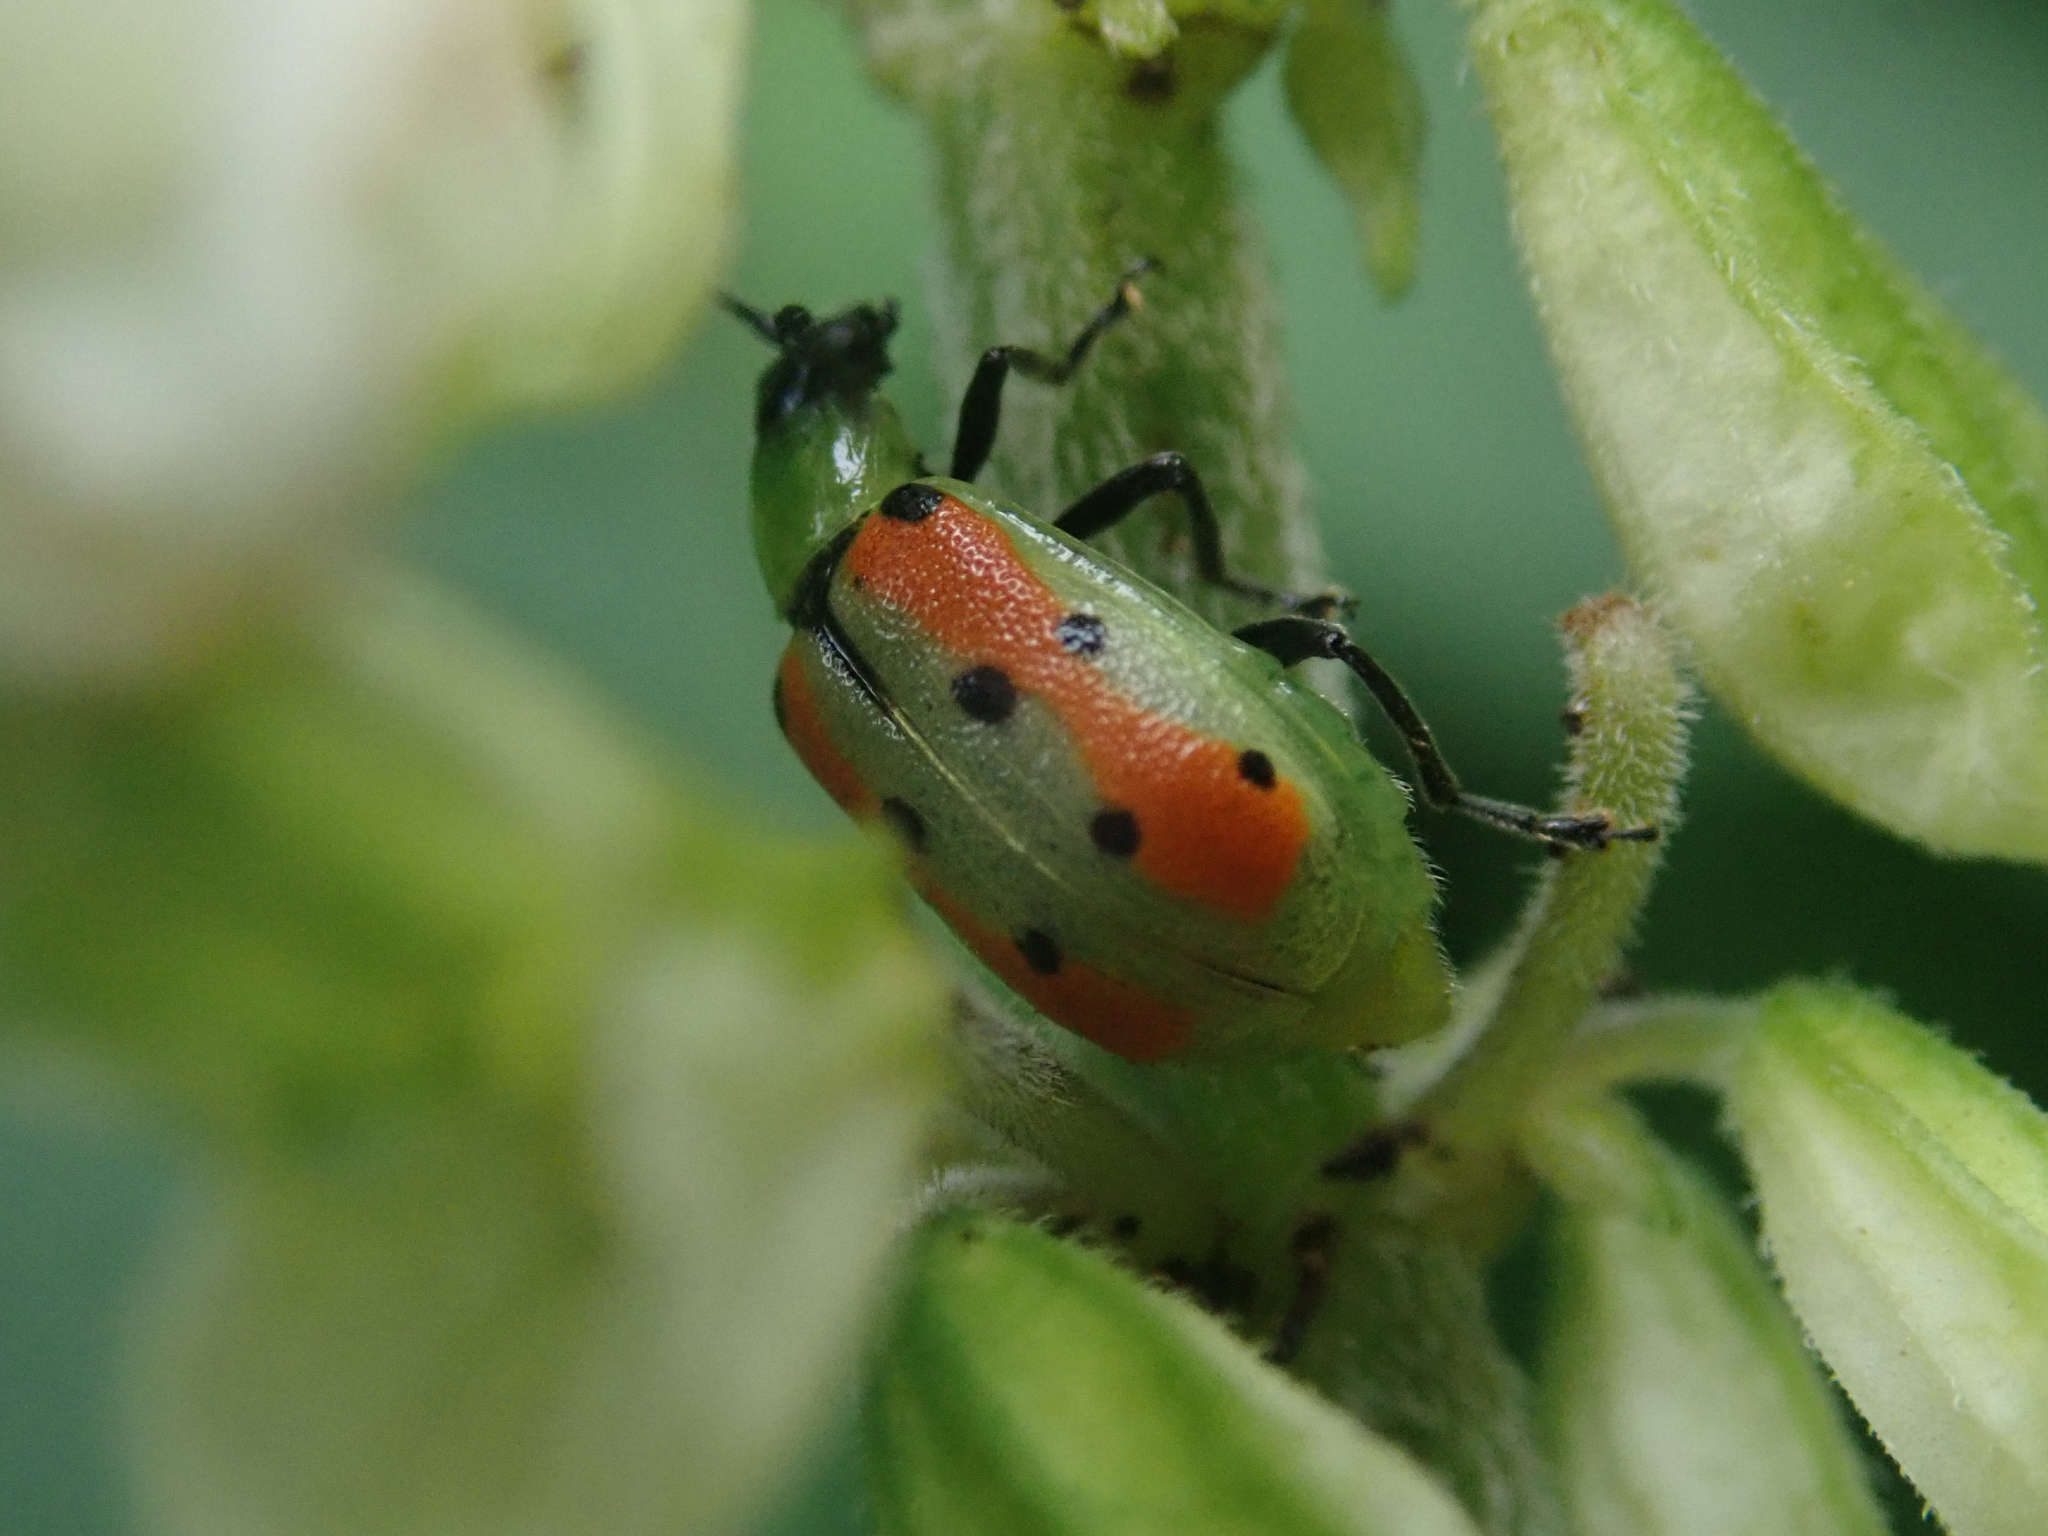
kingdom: Animalia
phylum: Arthropoda
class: Insecta
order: Coleoptera
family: Chrysomelidae
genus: Diabrotica
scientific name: Diabrotica decempunctata
